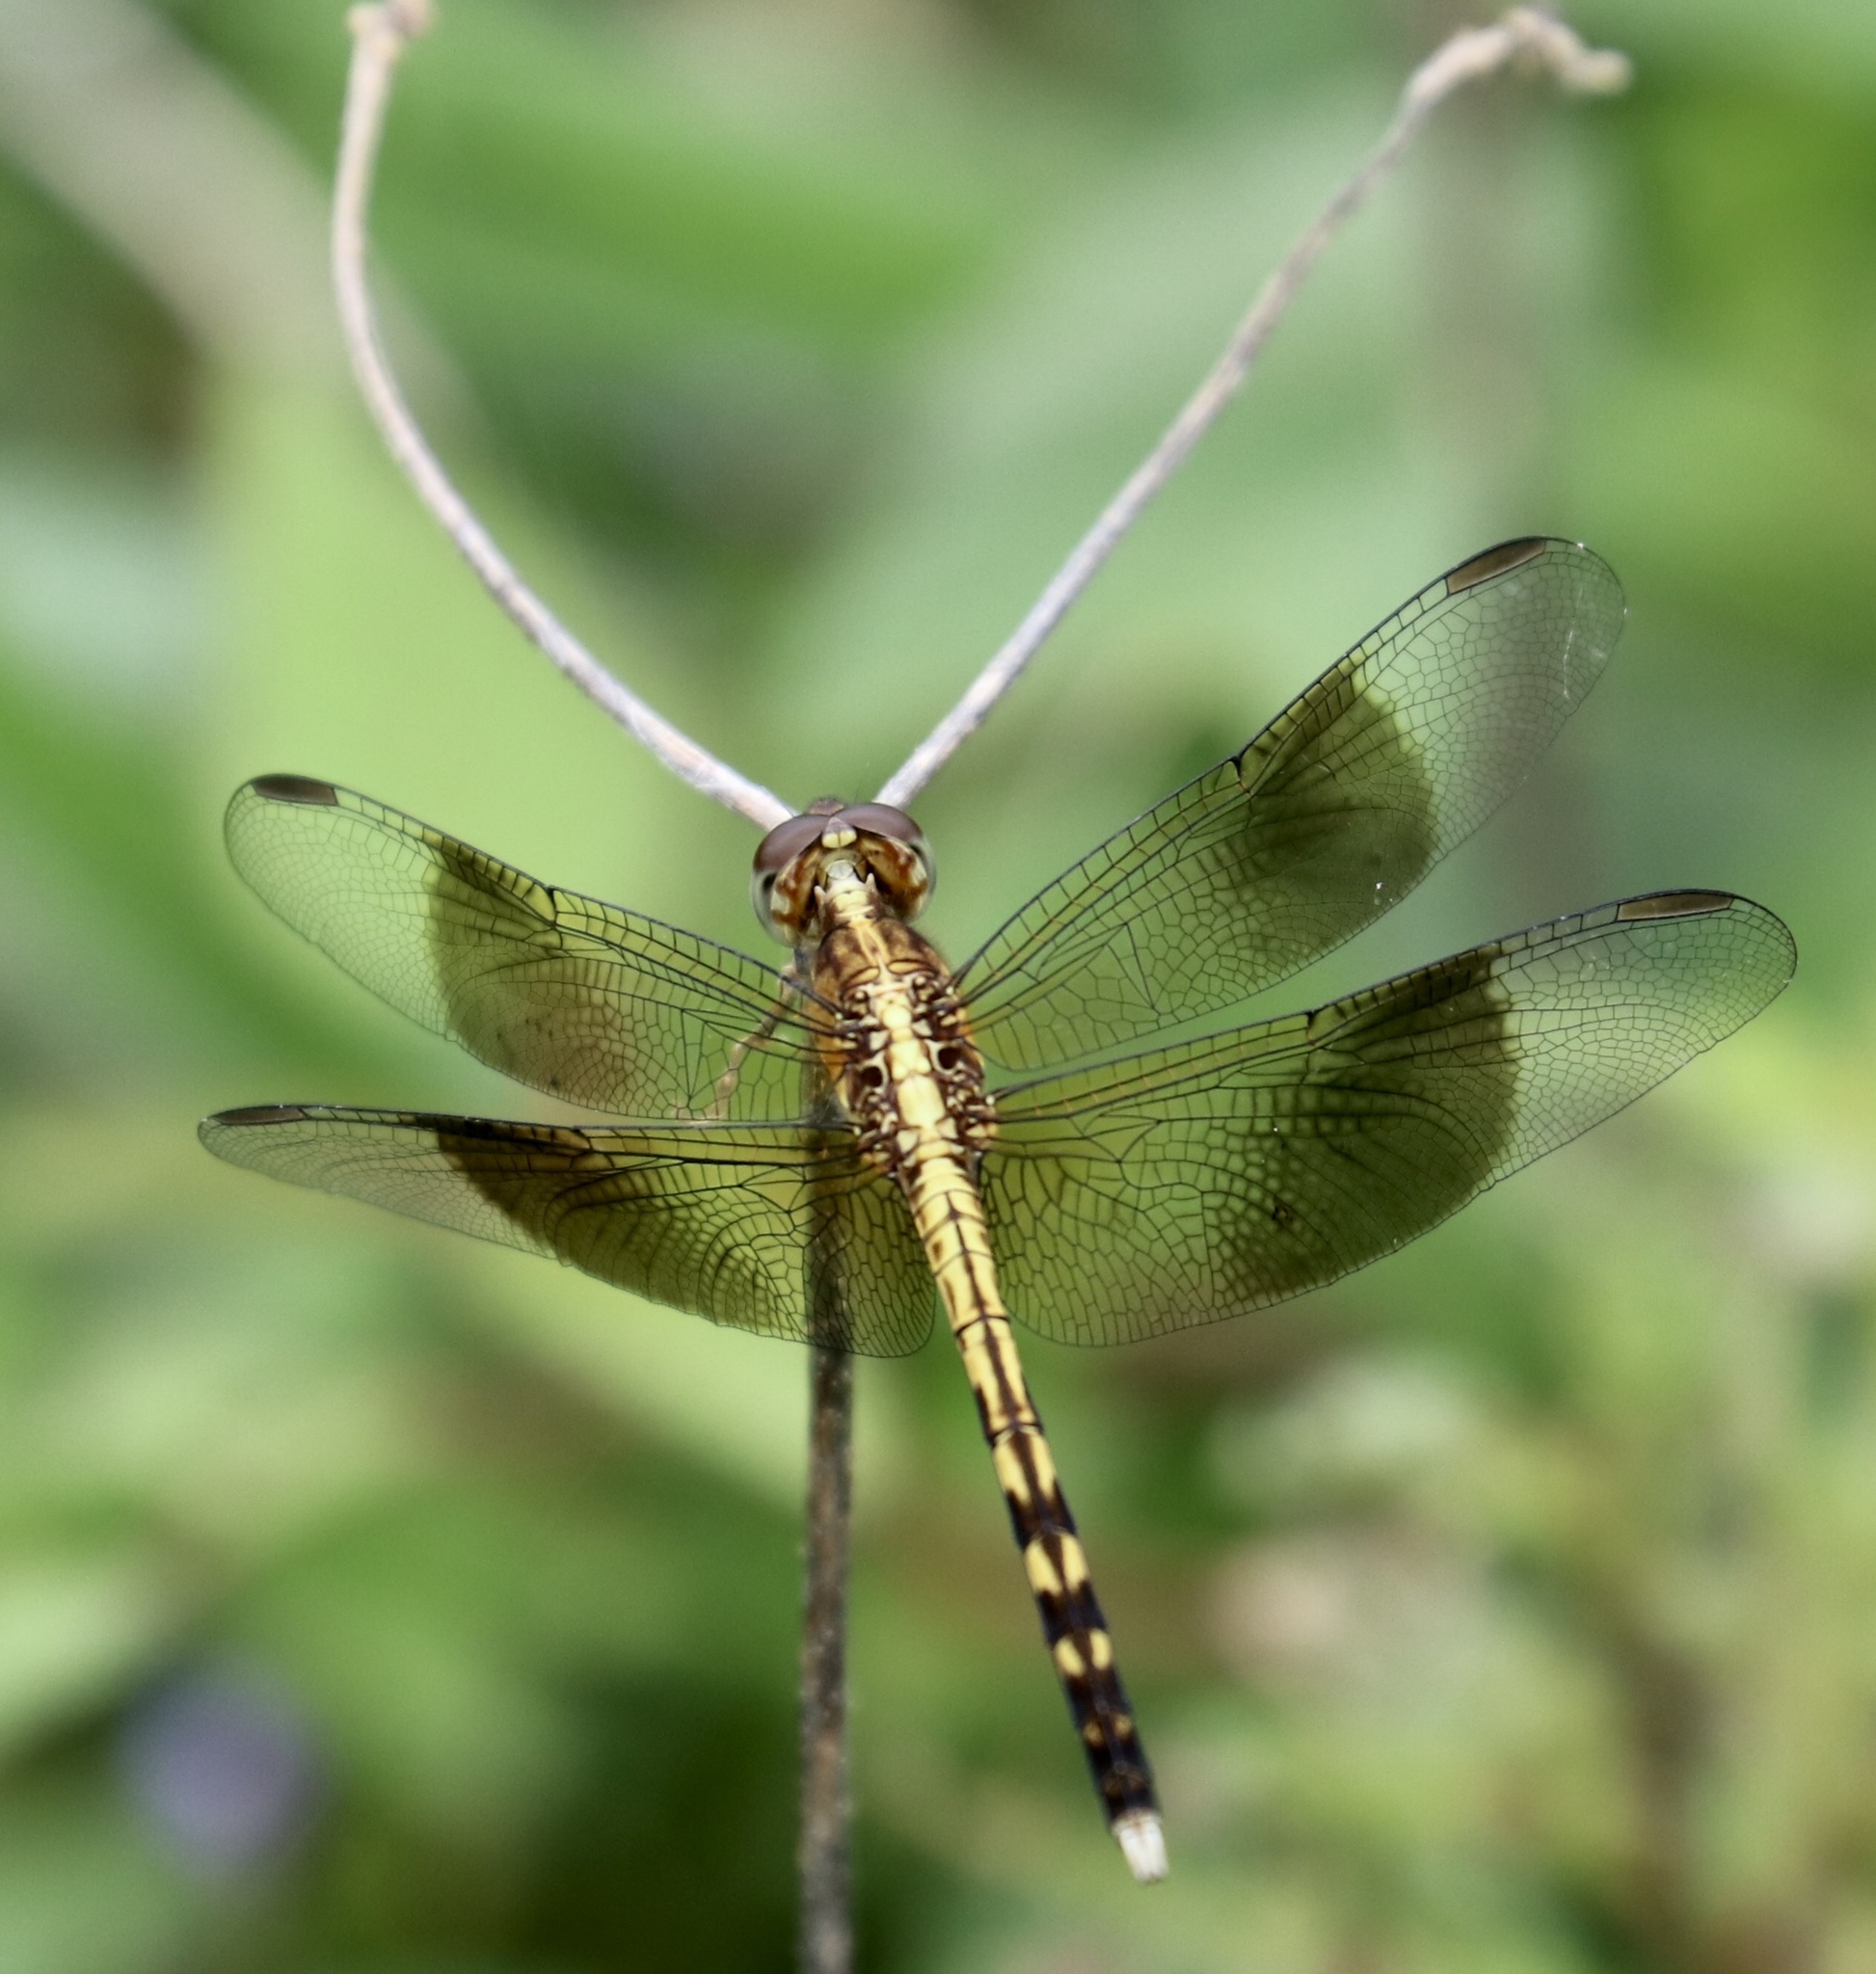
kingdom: Animalia
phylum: Arthropoda
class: Insecta
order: Odonata
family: Libellulidae
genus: Erythrodiplax
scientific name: Erythrodiplax funerea
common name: Black-winged dragonlet
